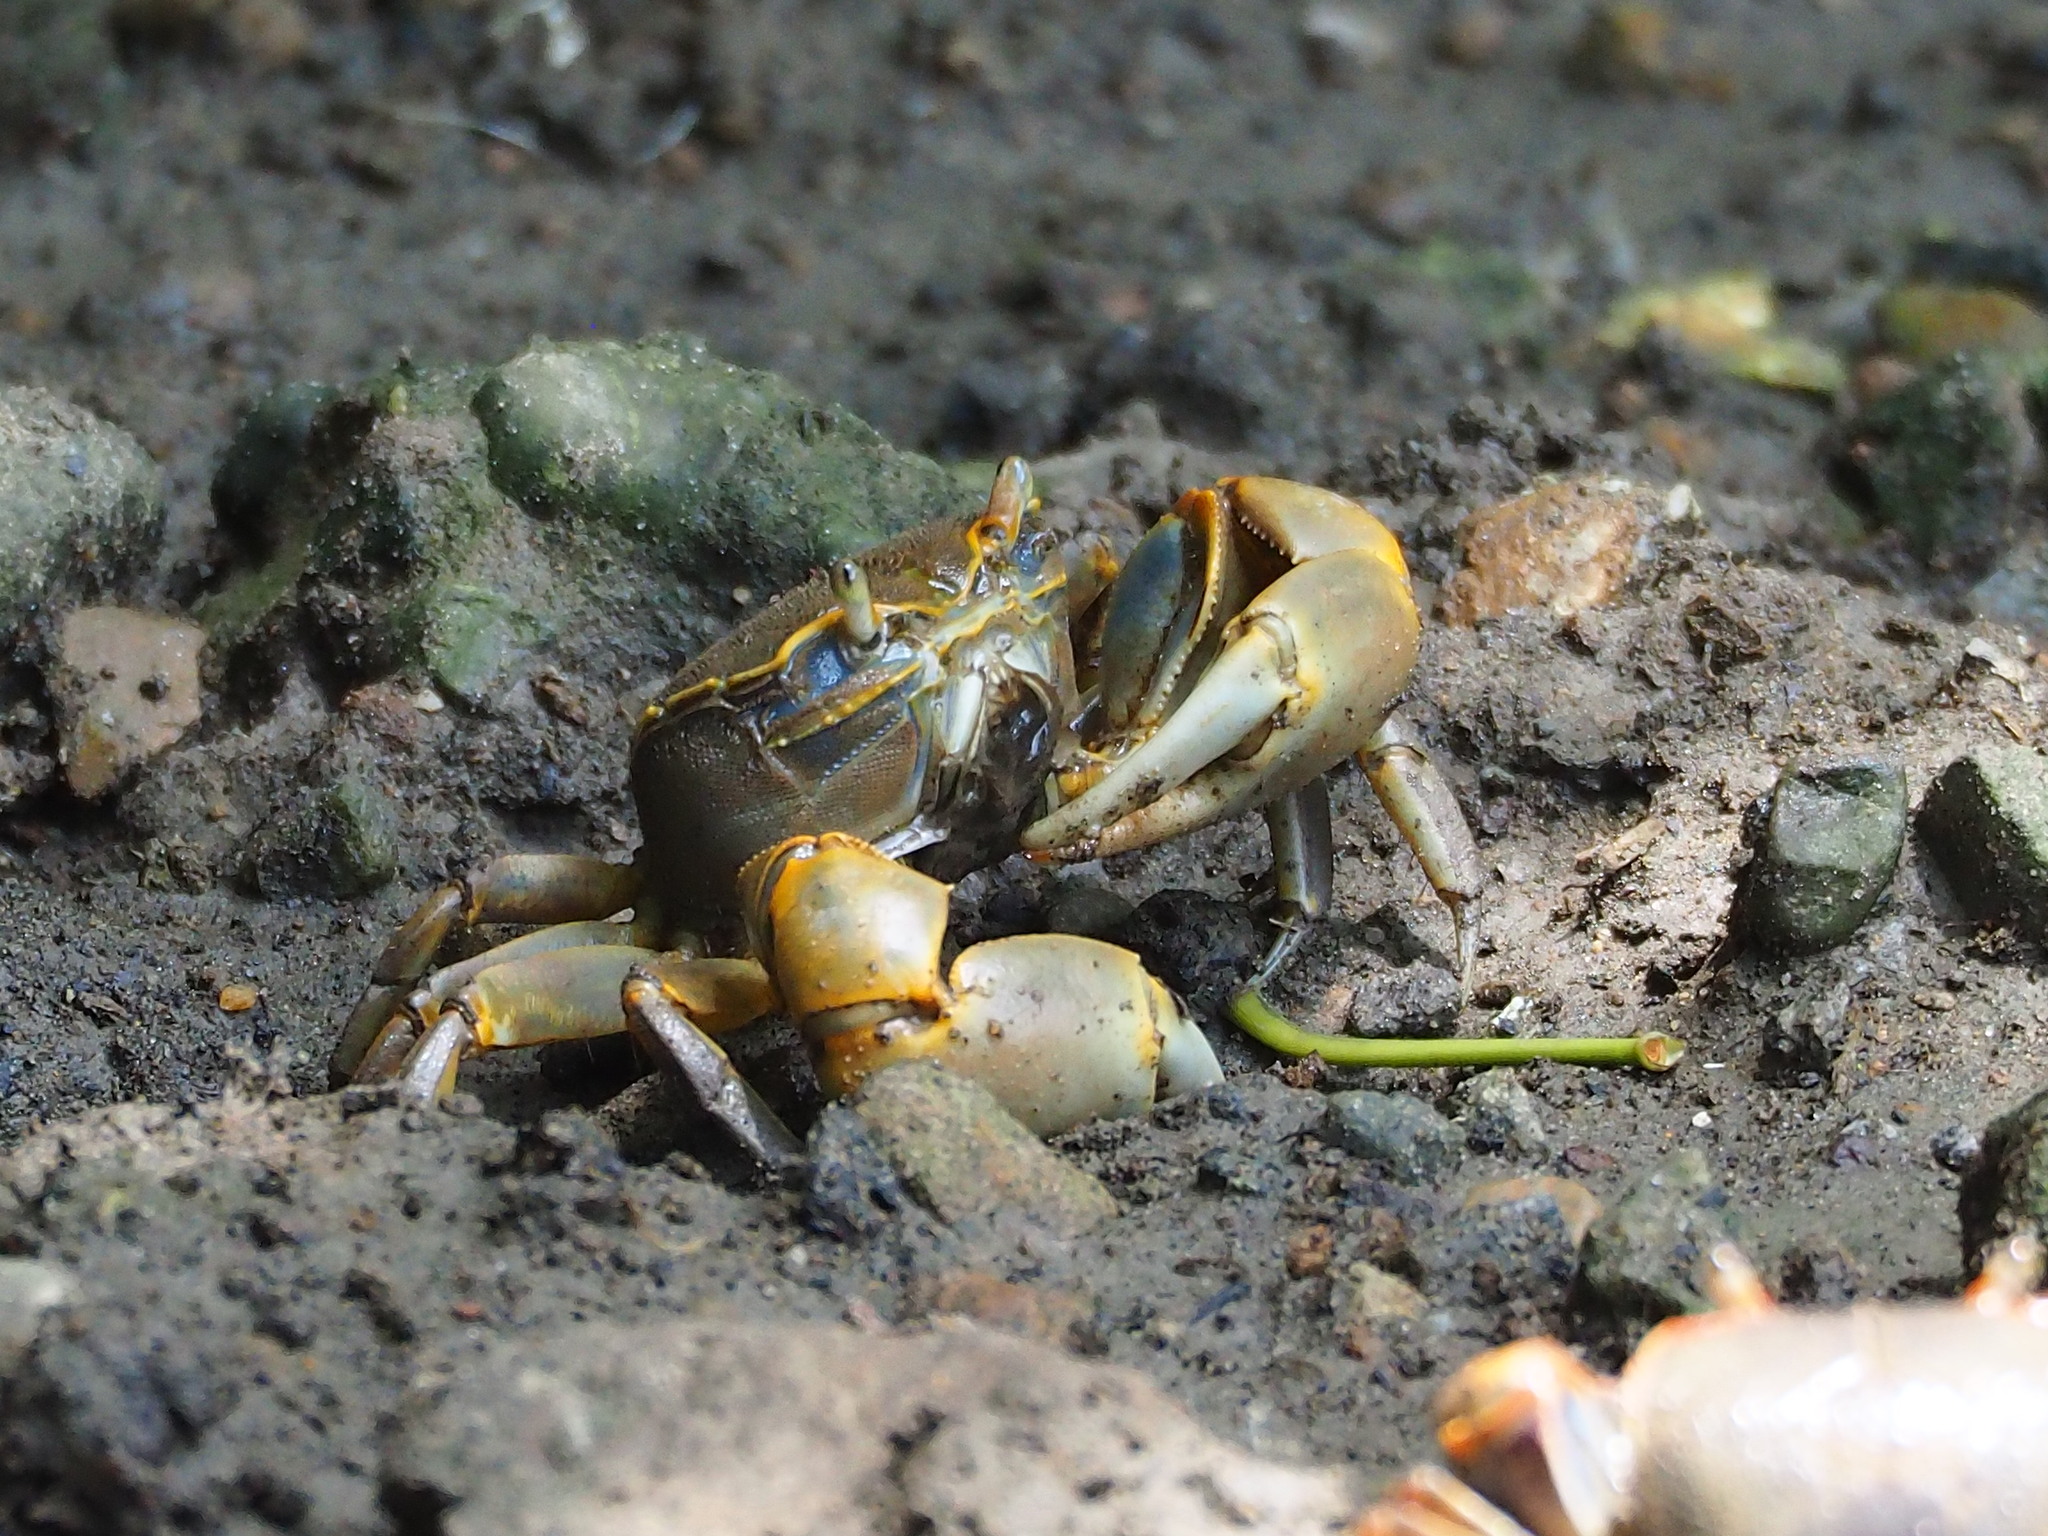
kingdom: Animalia
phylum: Arthropoda
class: Malacostraca
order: Decapoda
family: Varunidae
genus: Chasmagnathus
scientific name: Chasmagnathus convexus
